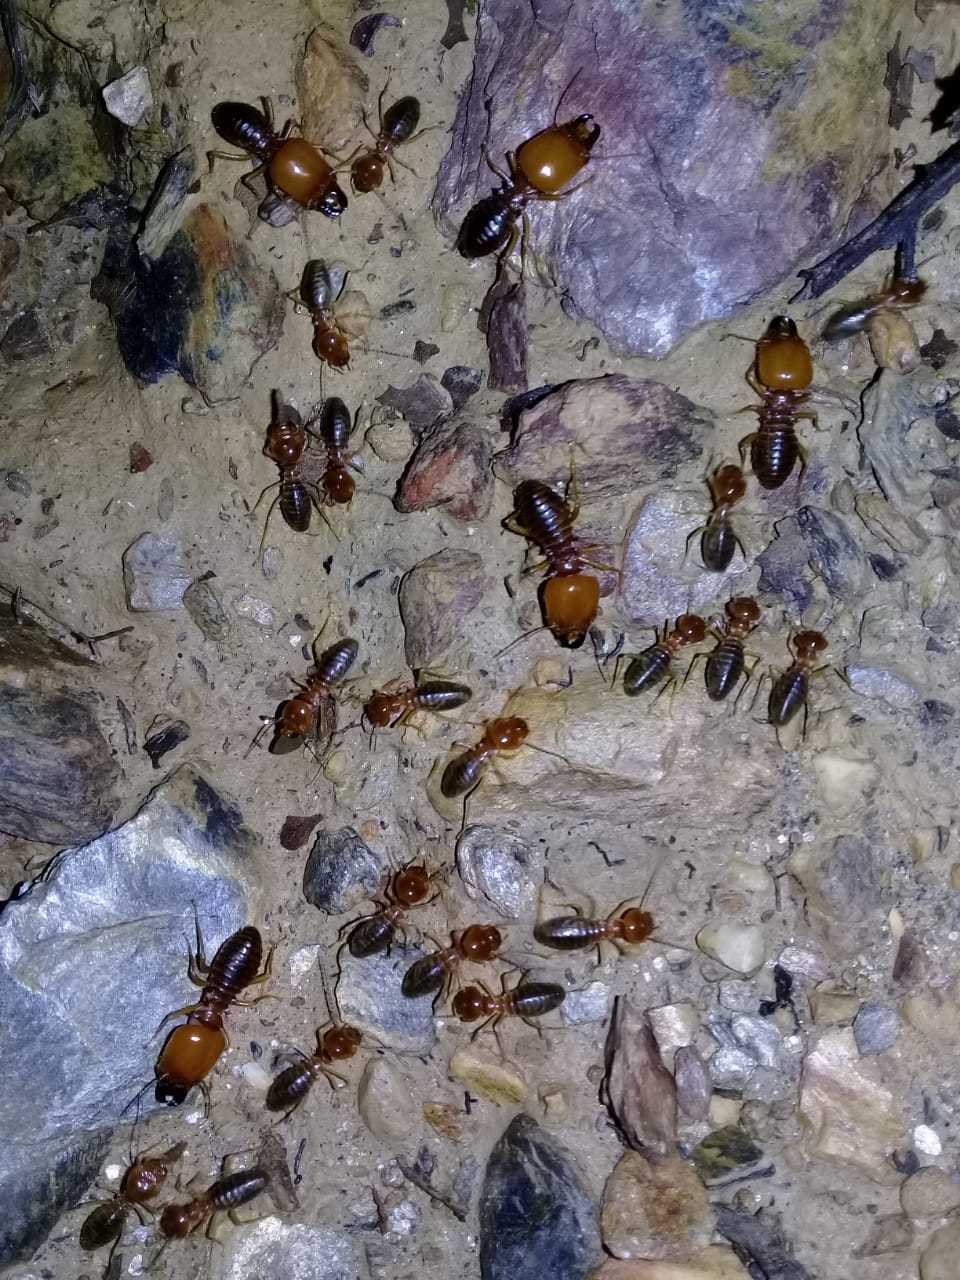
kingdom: Animalia
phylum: Arthropoda
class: Insecta
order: Blattodea
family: Termitidae
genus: Syntermes
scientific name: Syntermes territus
